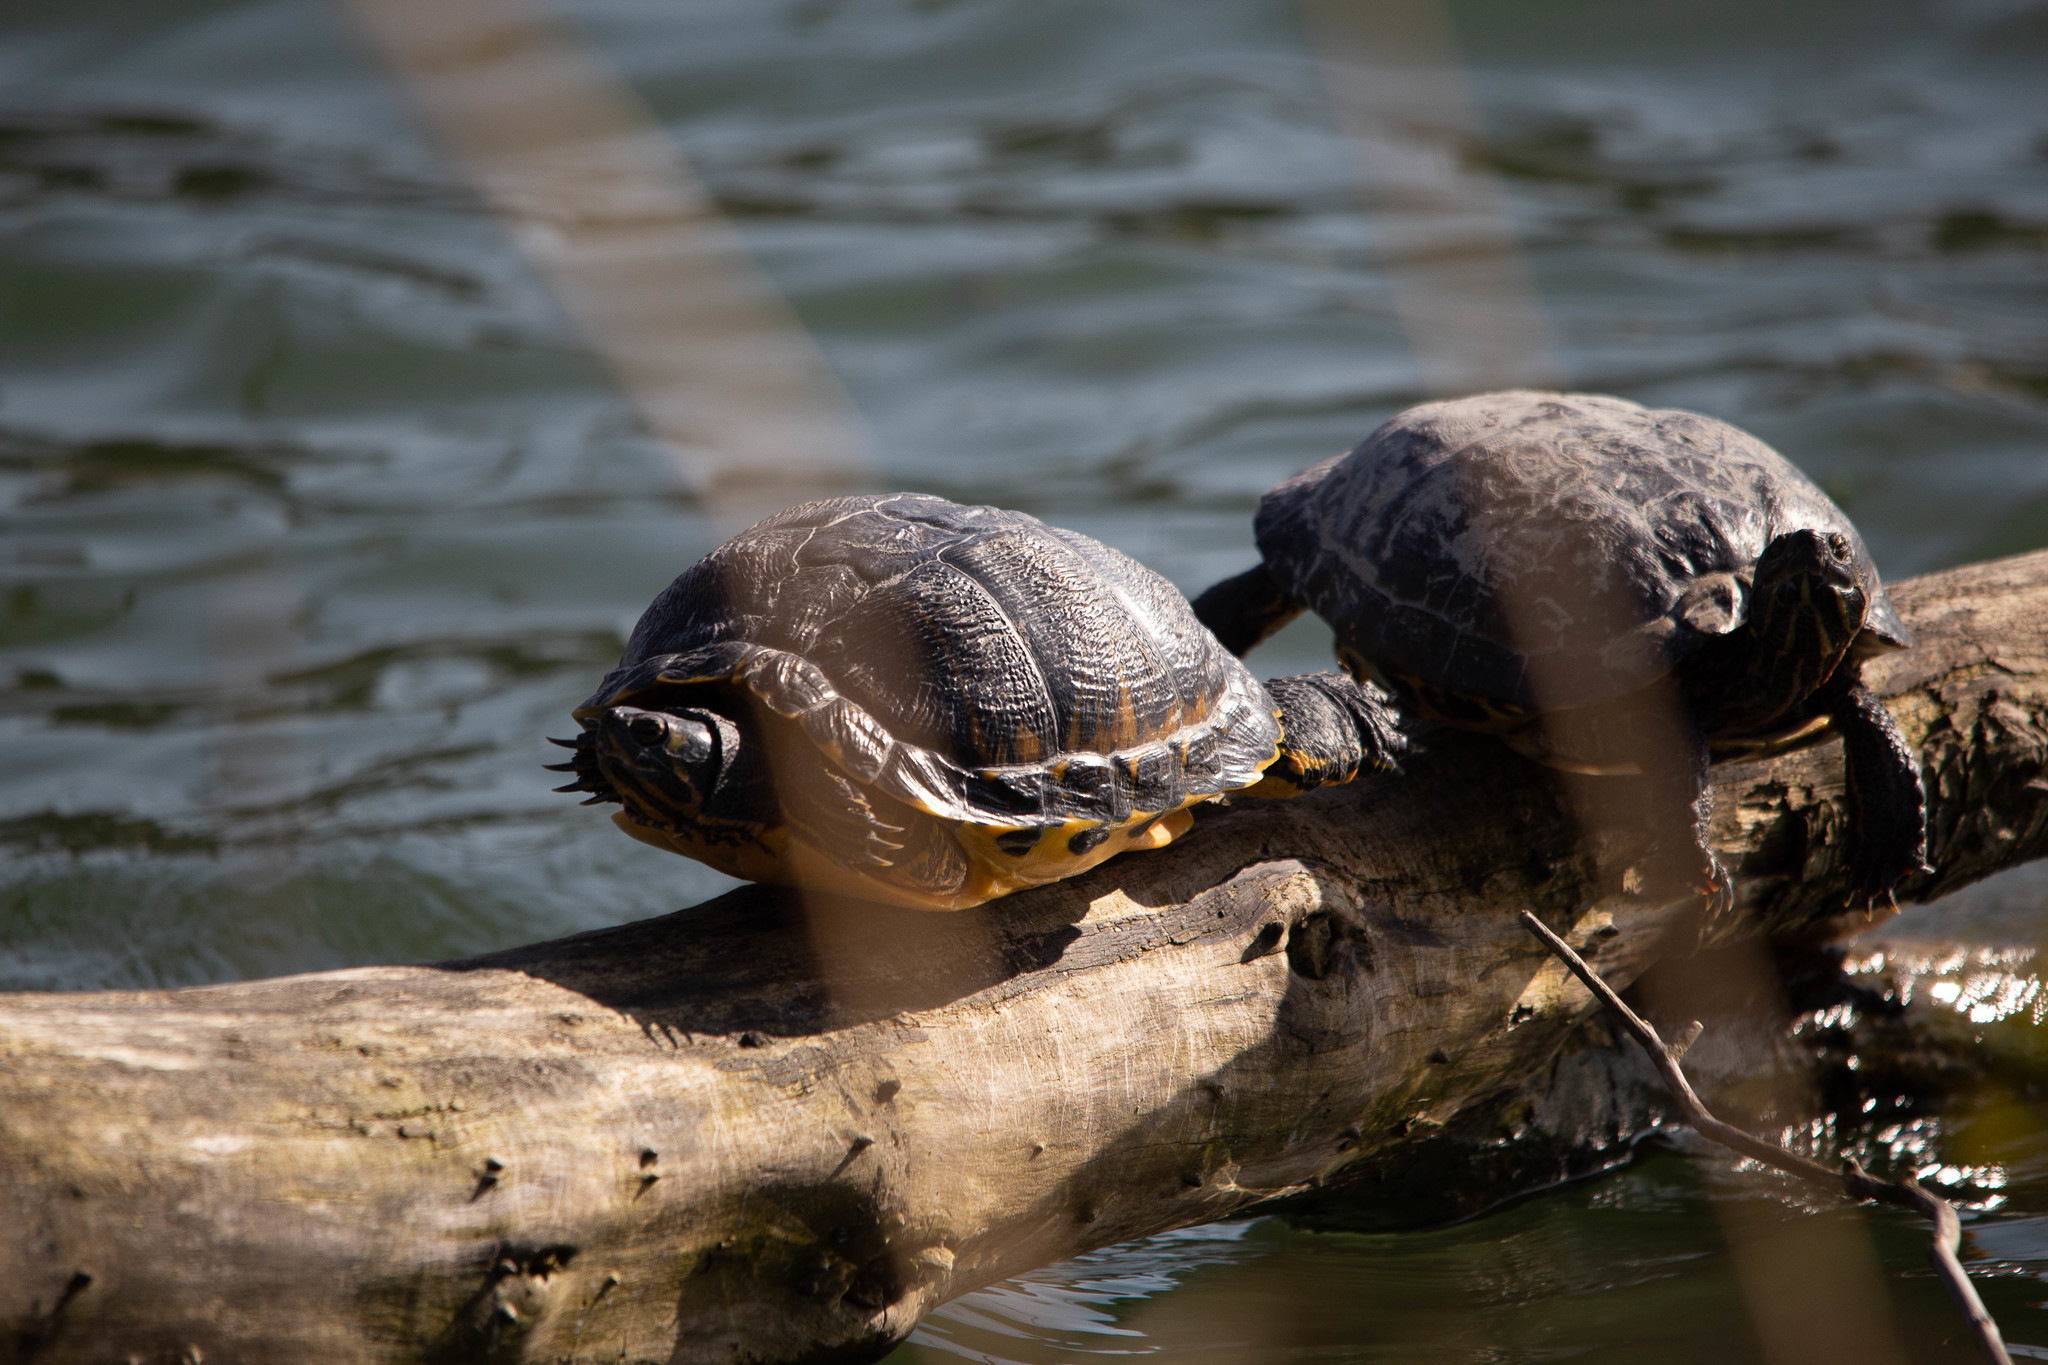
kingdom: Animalia
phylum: Chordata
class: Testudines
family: Emydidae
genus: Trachemys
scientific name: Trachemys scripta
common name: Slider
